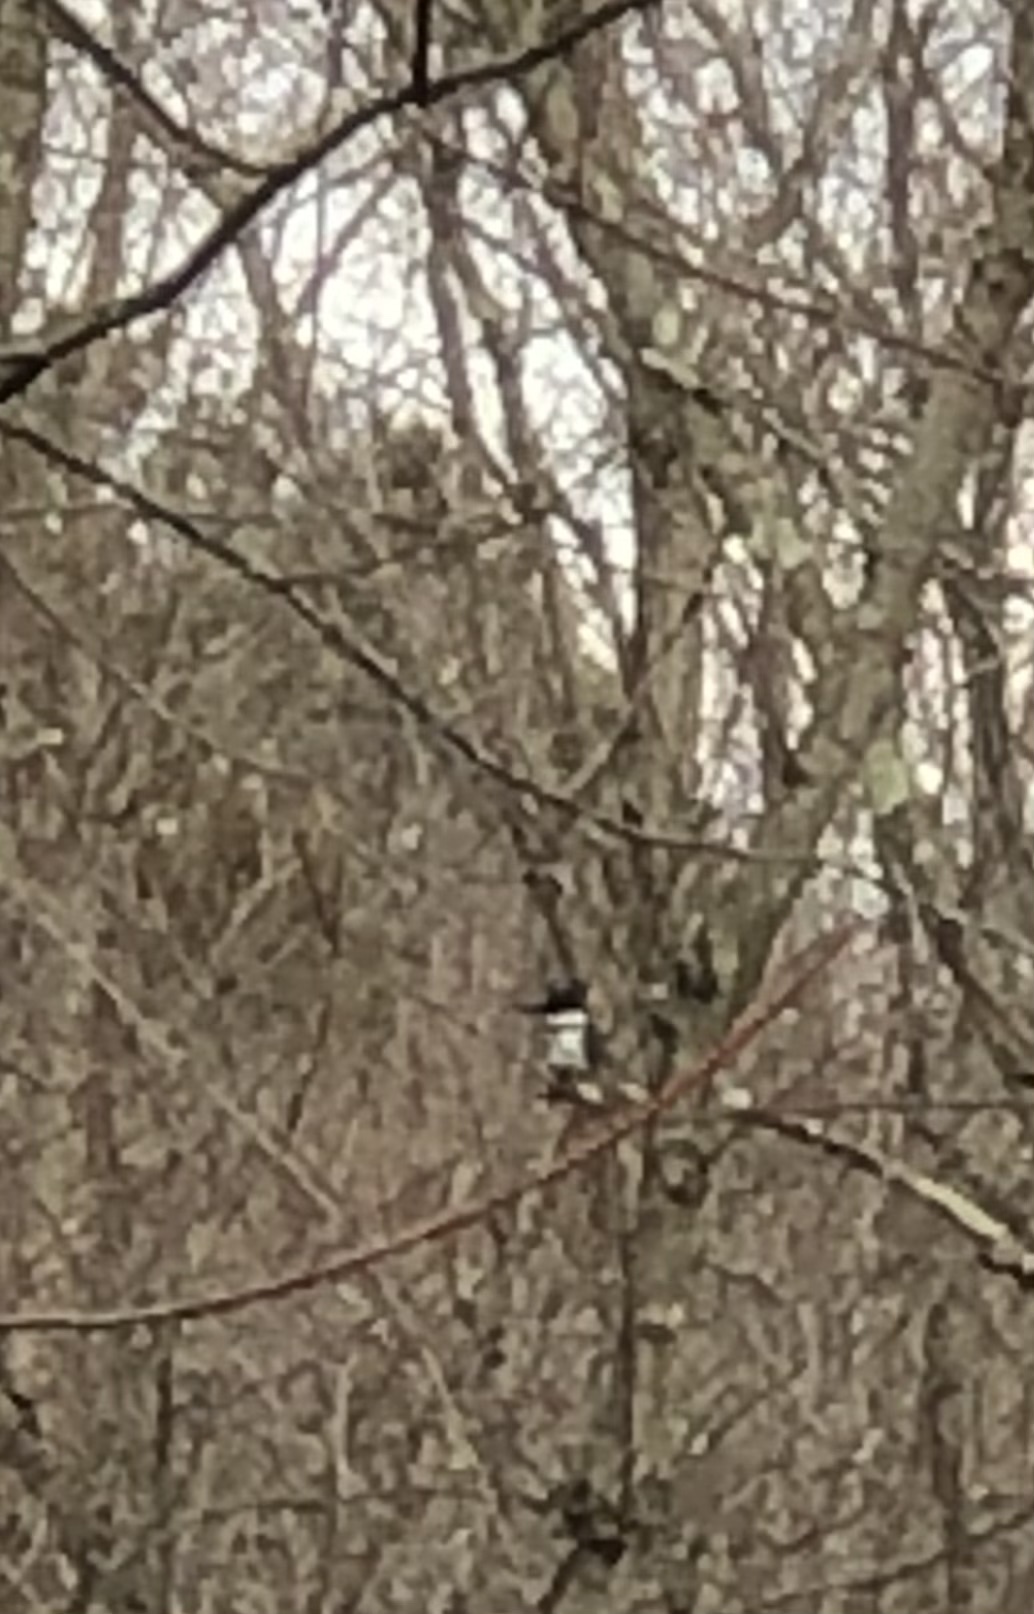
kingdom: Animalia
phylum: Chordata
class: Aves
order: Coraciiformes
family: Alcedinidae
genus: Megaceryle
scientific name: Megaceryle alcyon
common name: Belted kingfisher
